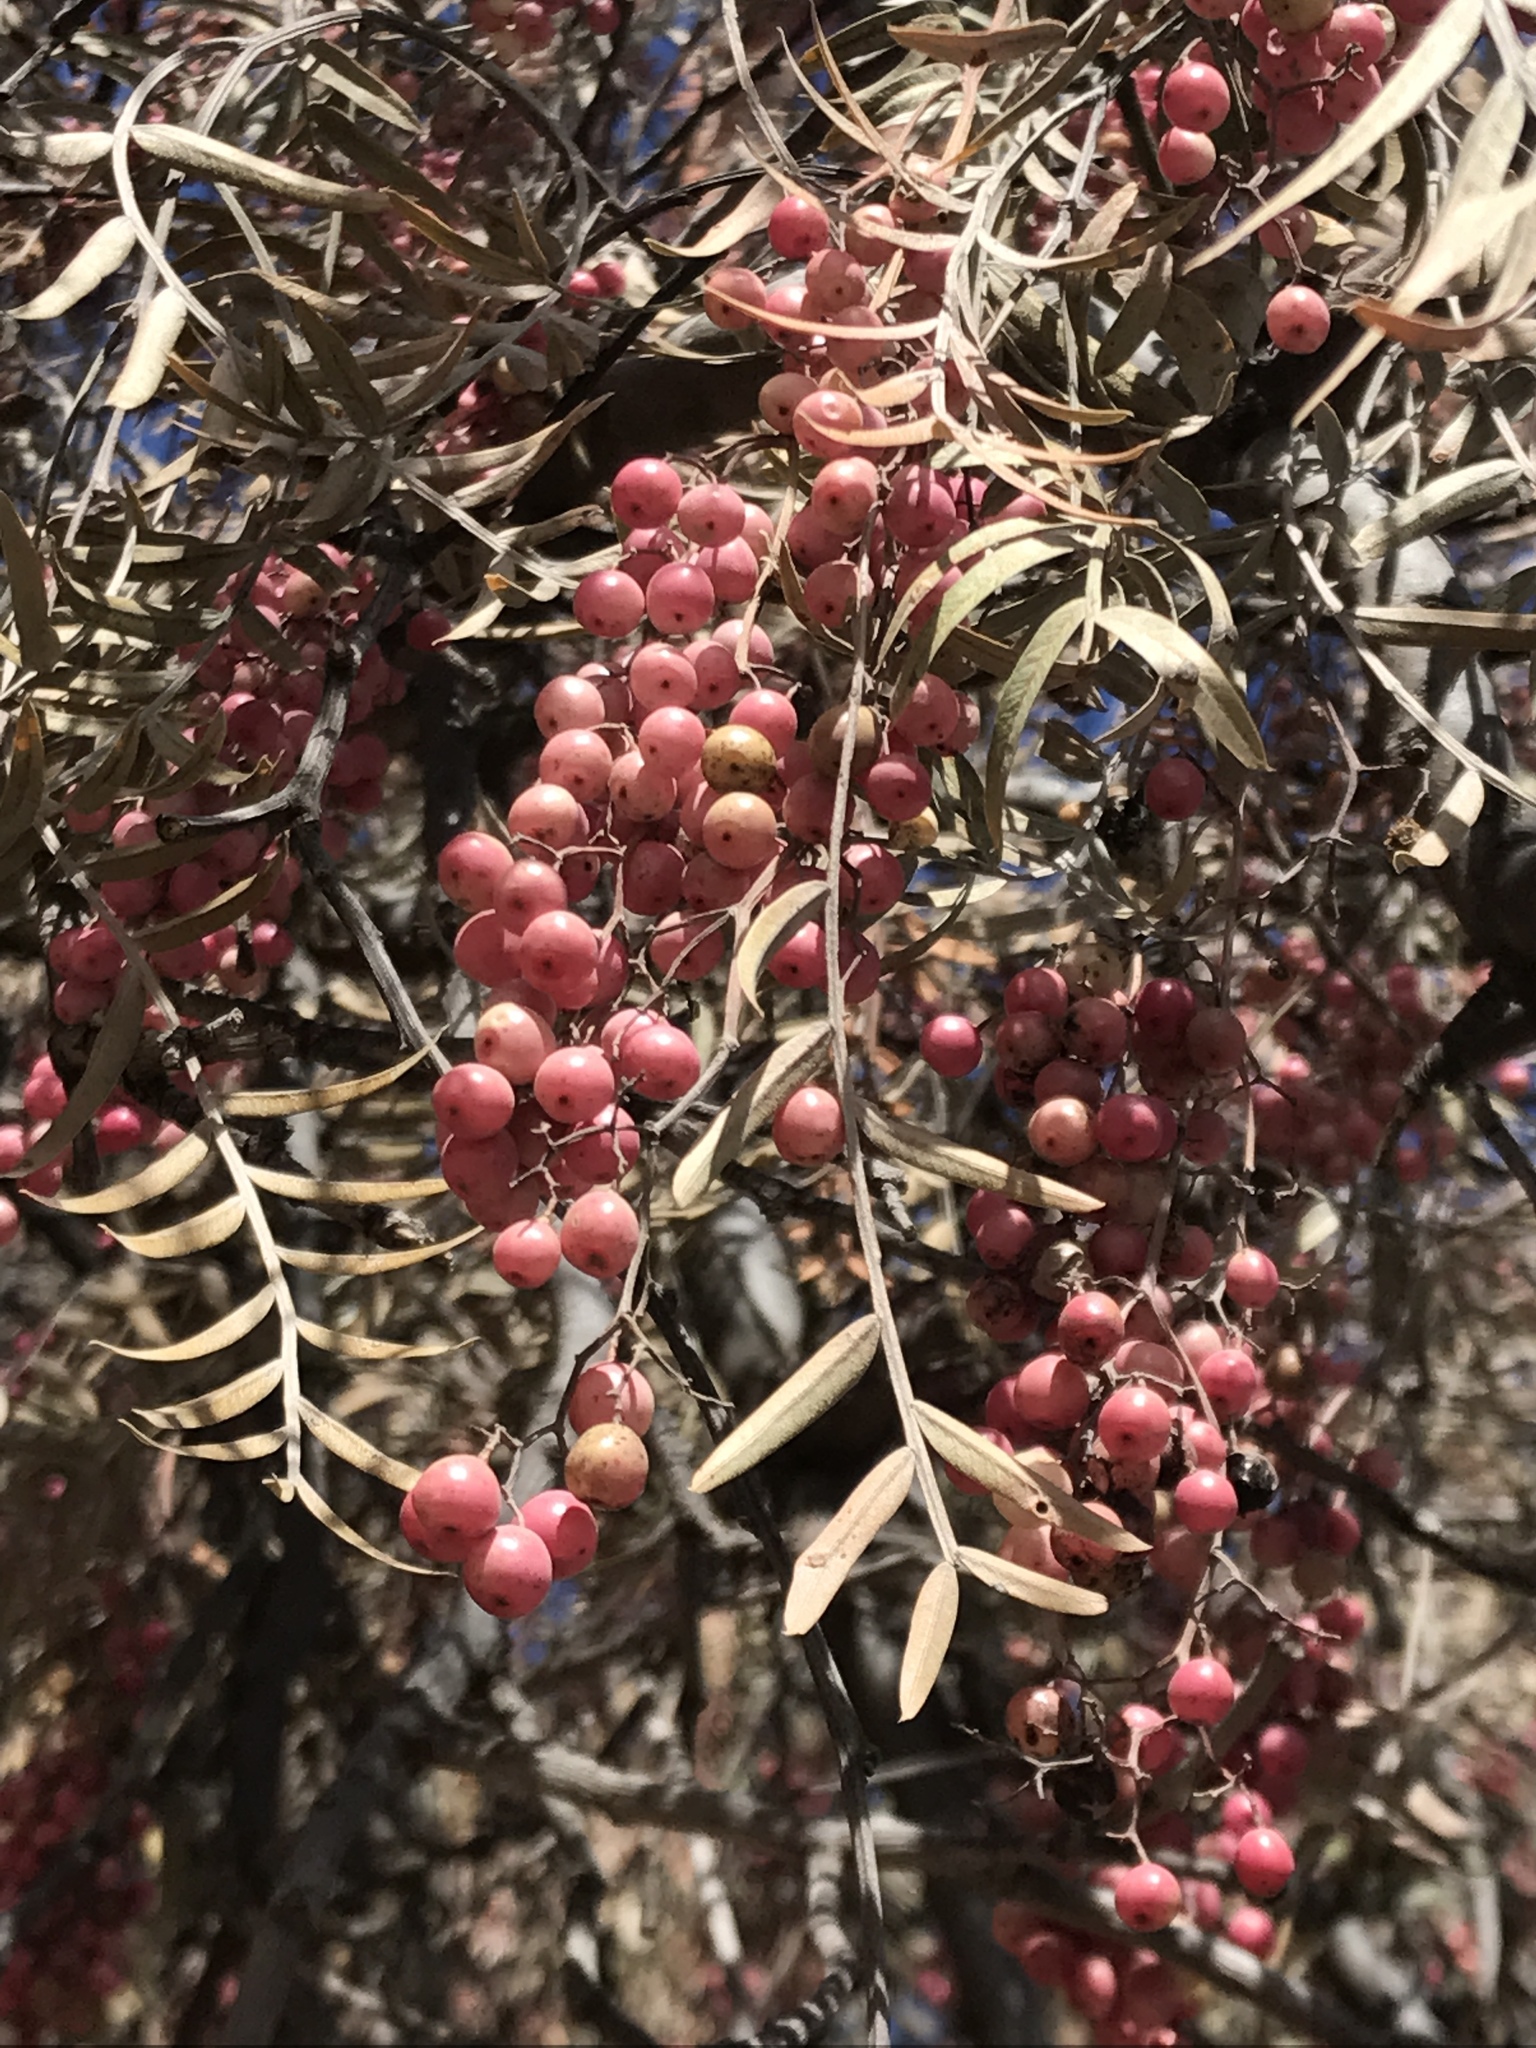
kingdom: Plantae
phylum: Tracheophyta
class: Magnoliopsida
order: Sapindales
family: Anacardiaceae
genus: Schinus
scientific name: Schinus molle
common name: Peruvian peppertree
